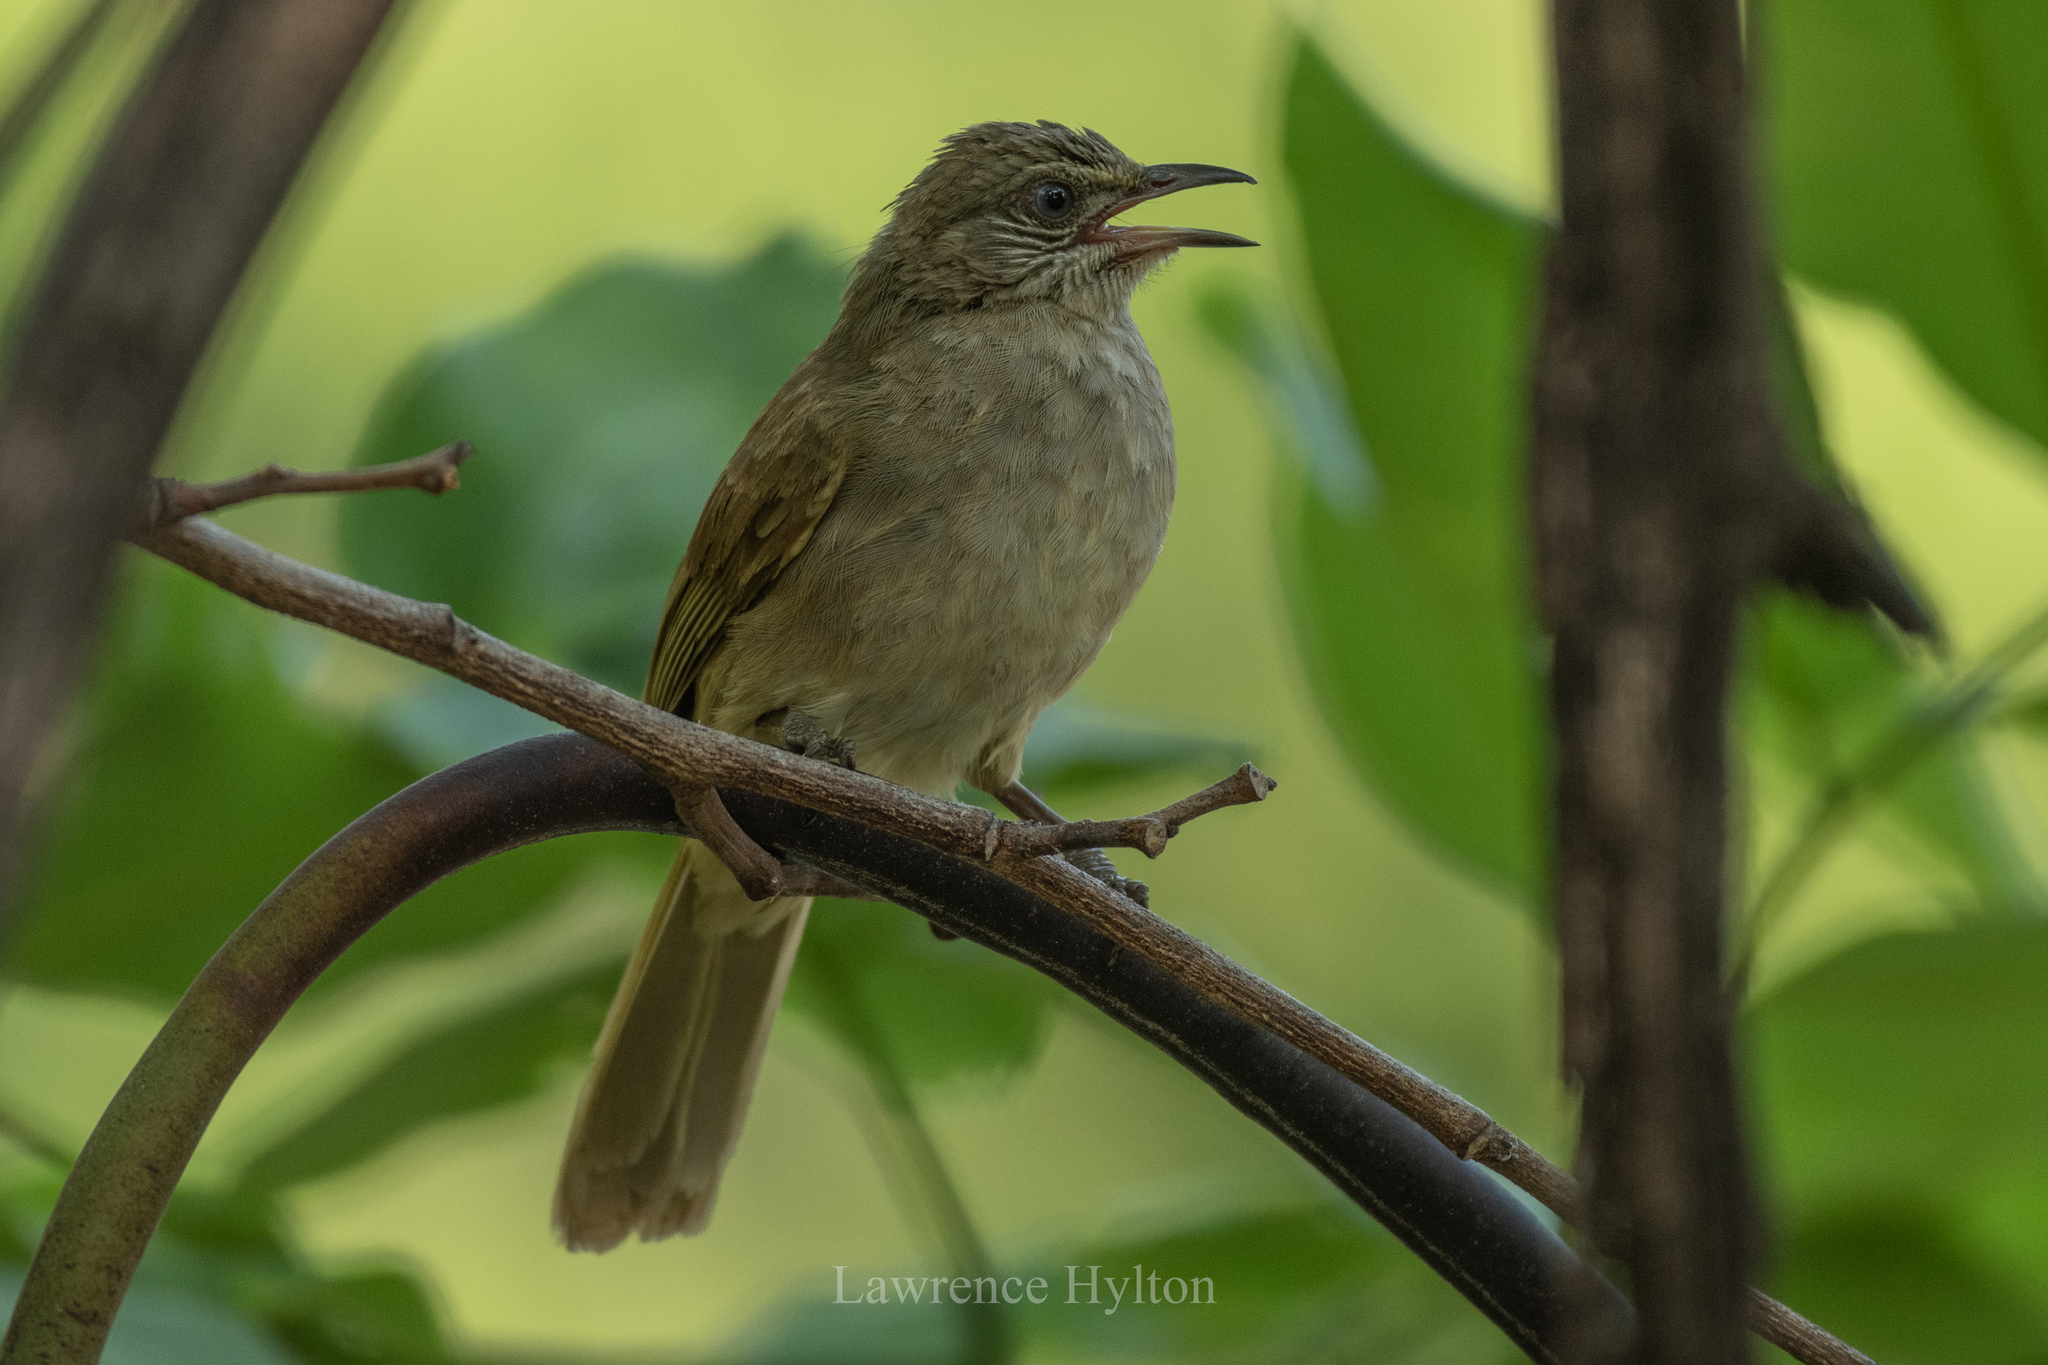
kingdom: Animalia
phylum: Chordata
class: Aves
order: Passeriformes
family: Pycnonotidae
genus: Pycnonotus
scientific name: Pycnonotus blanfordi
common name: Streak-eared bulbul
